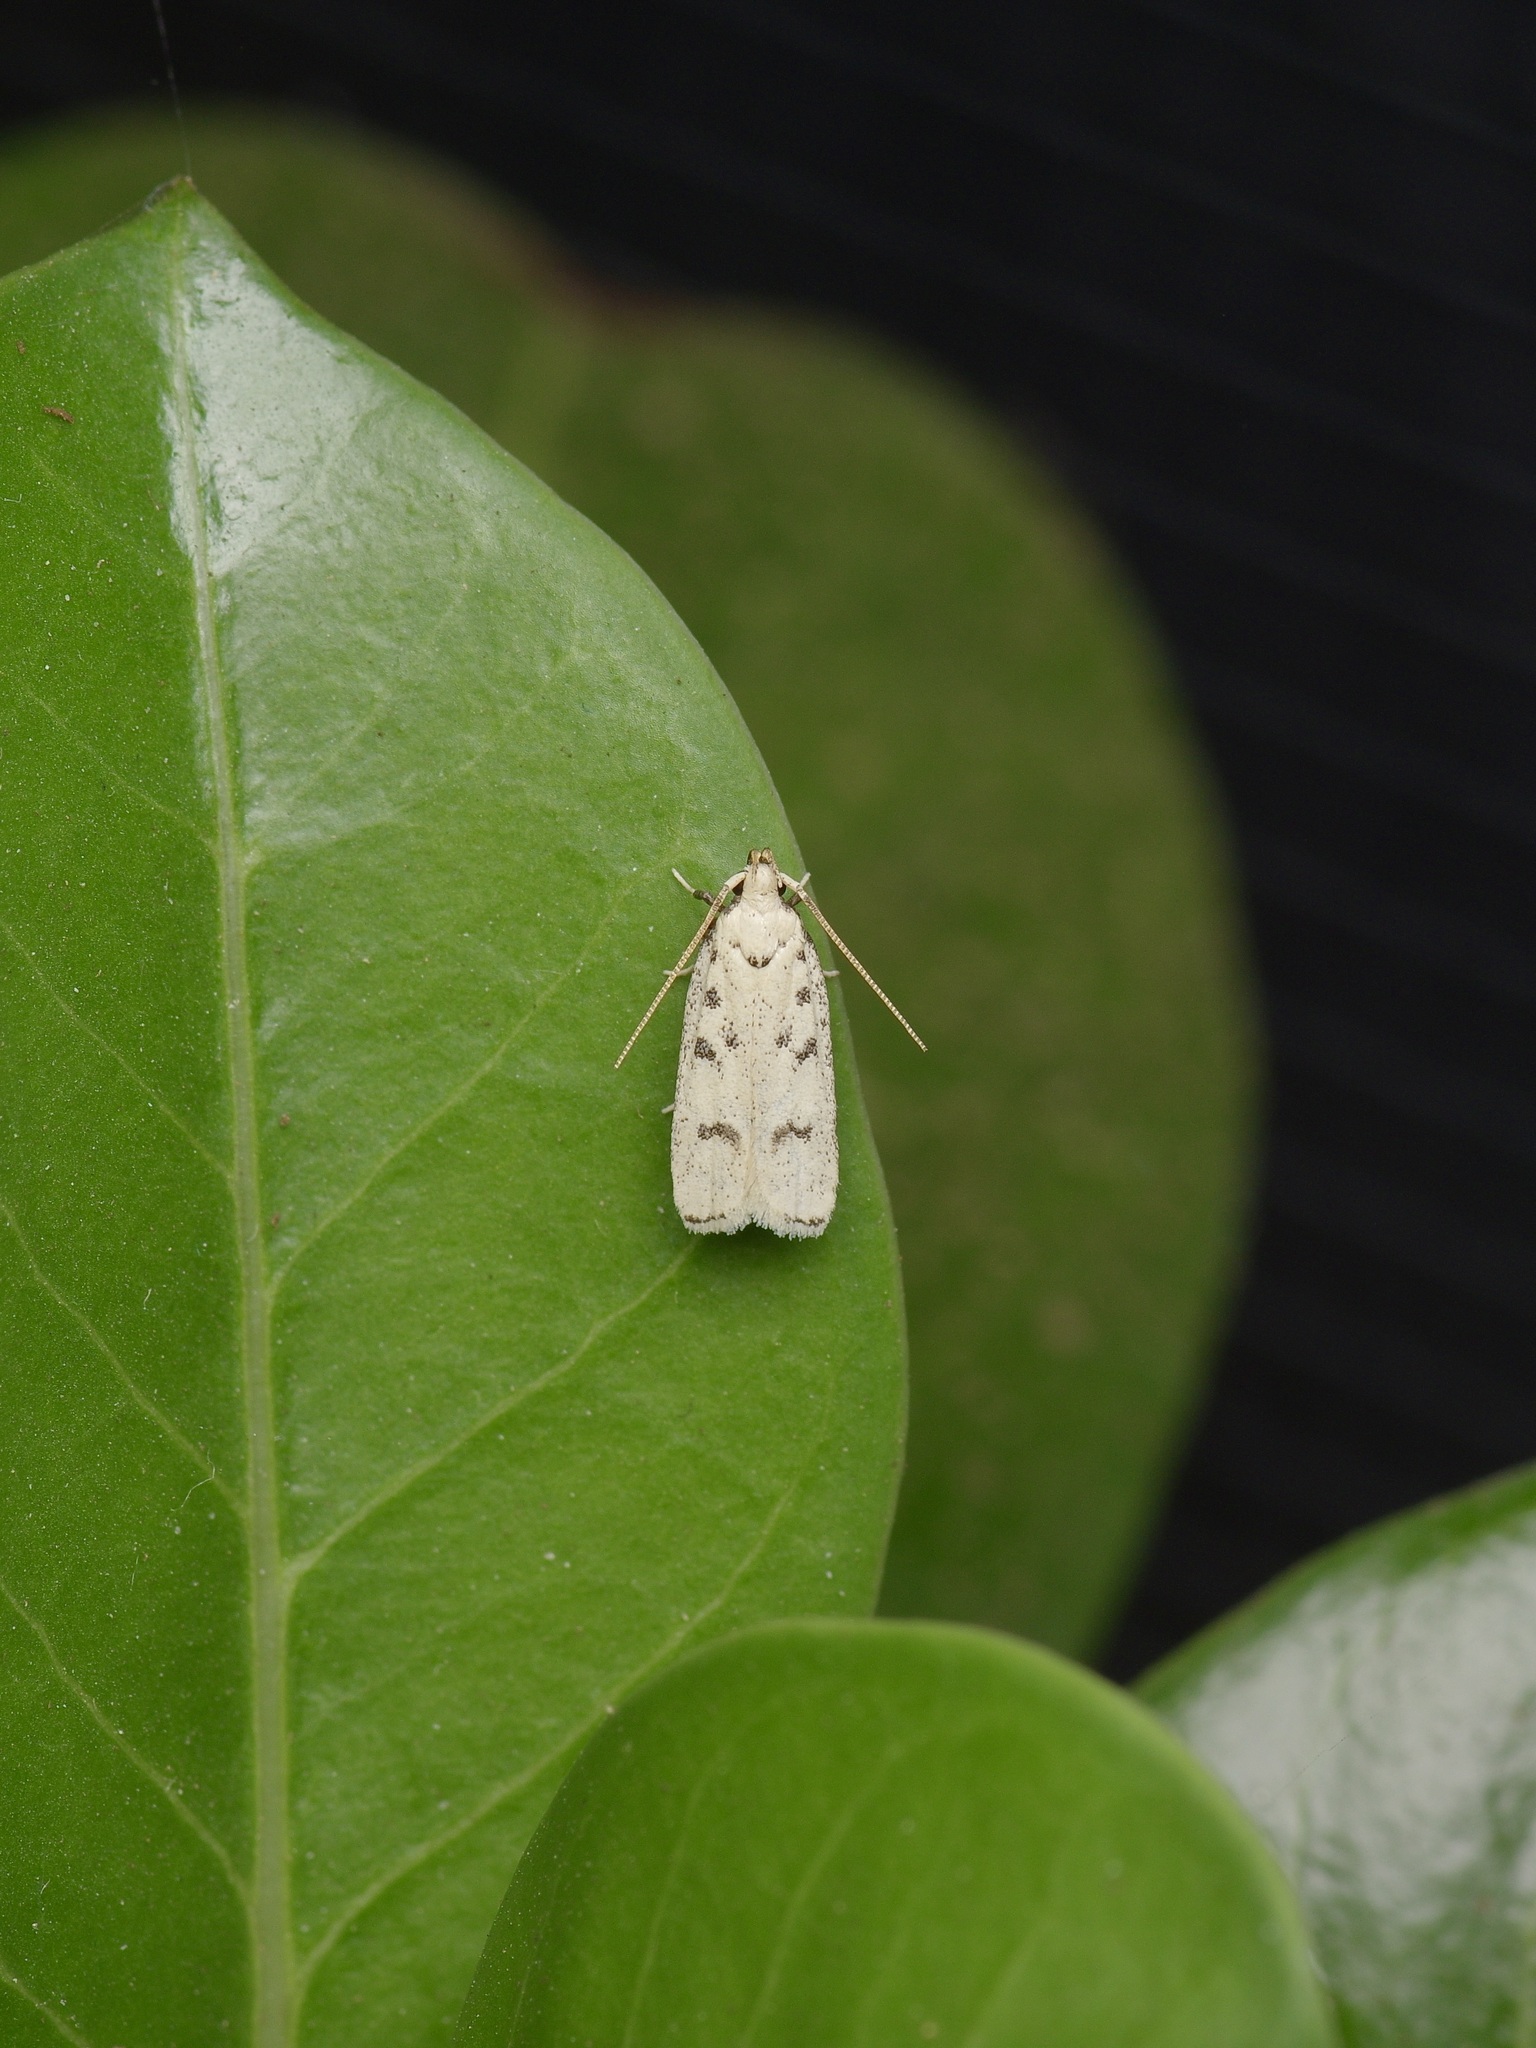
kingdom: Animalia
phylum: Arthropoda
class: Insecta
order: Lepidoptera
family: Autostichidae
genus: Glyphidocera
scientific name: Glyphidocera lactiflosella
